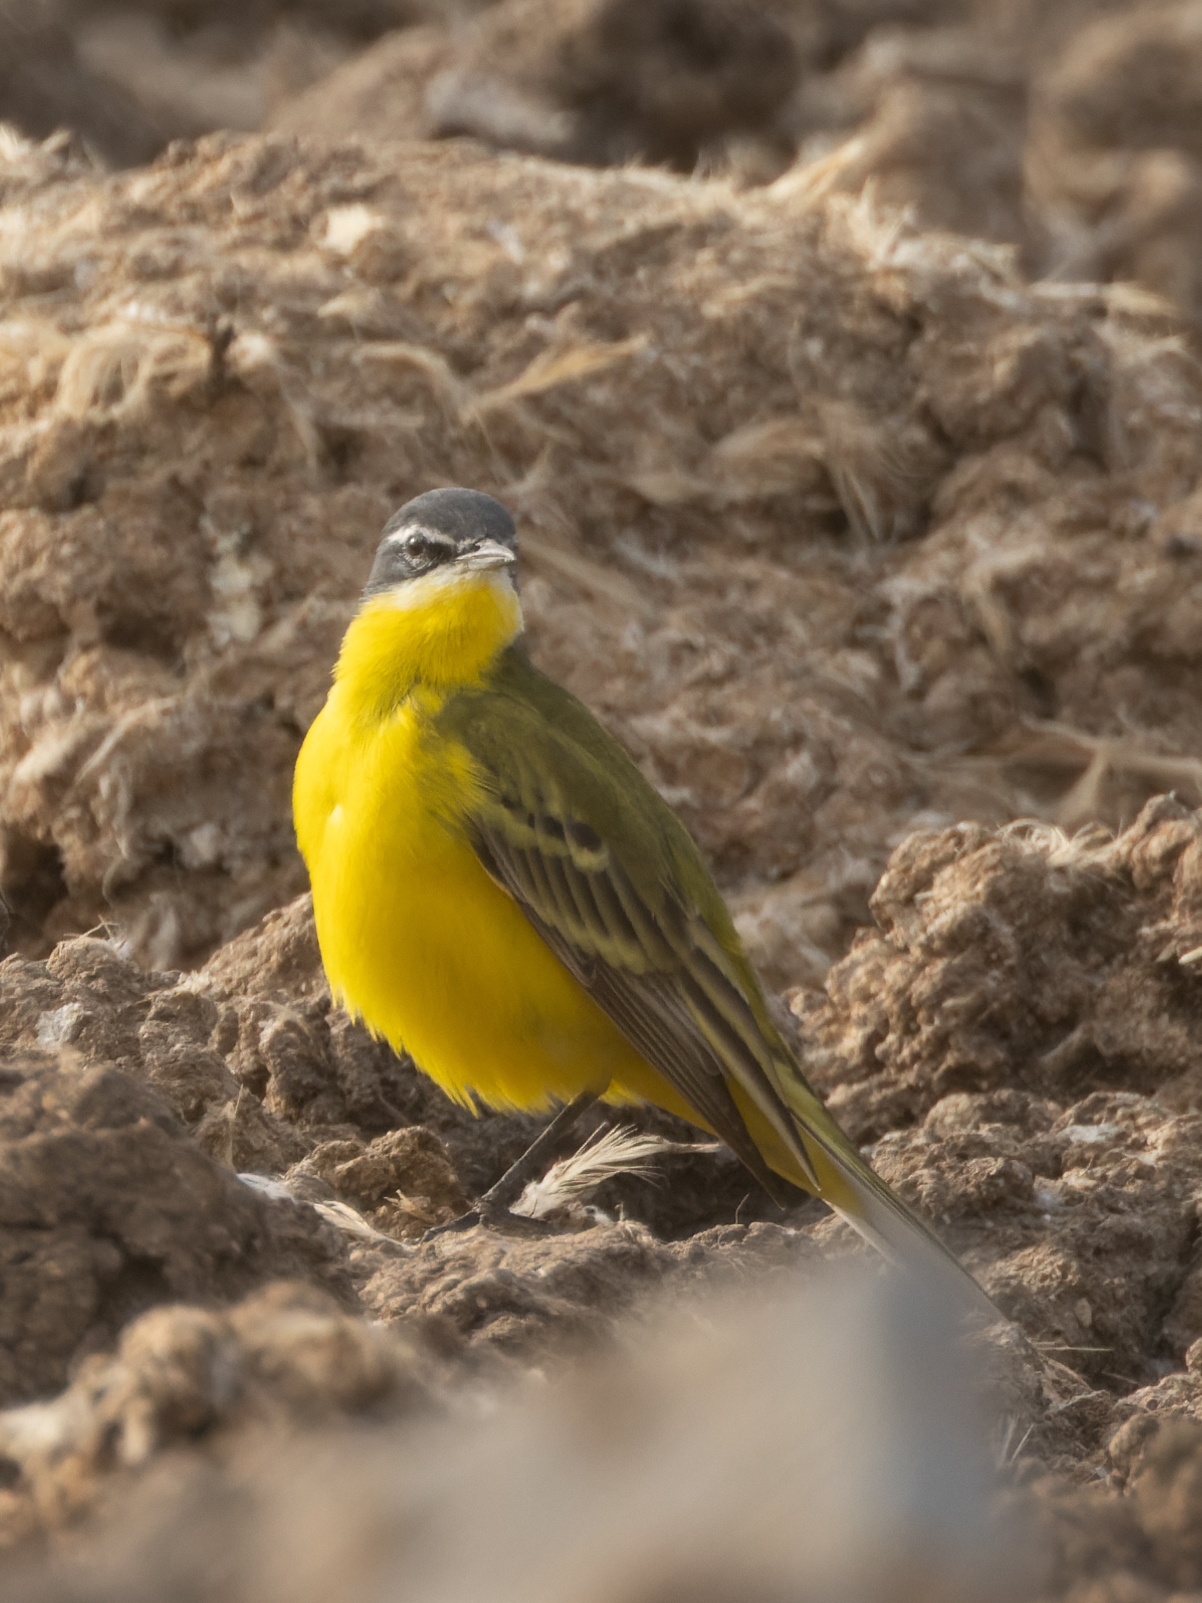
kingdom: Animalia
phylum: Chordata
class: Aves
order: Passeriformes
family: Motacillidae
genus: Motacilla
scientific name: Motacilla flava
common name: Western yellow wagtail
